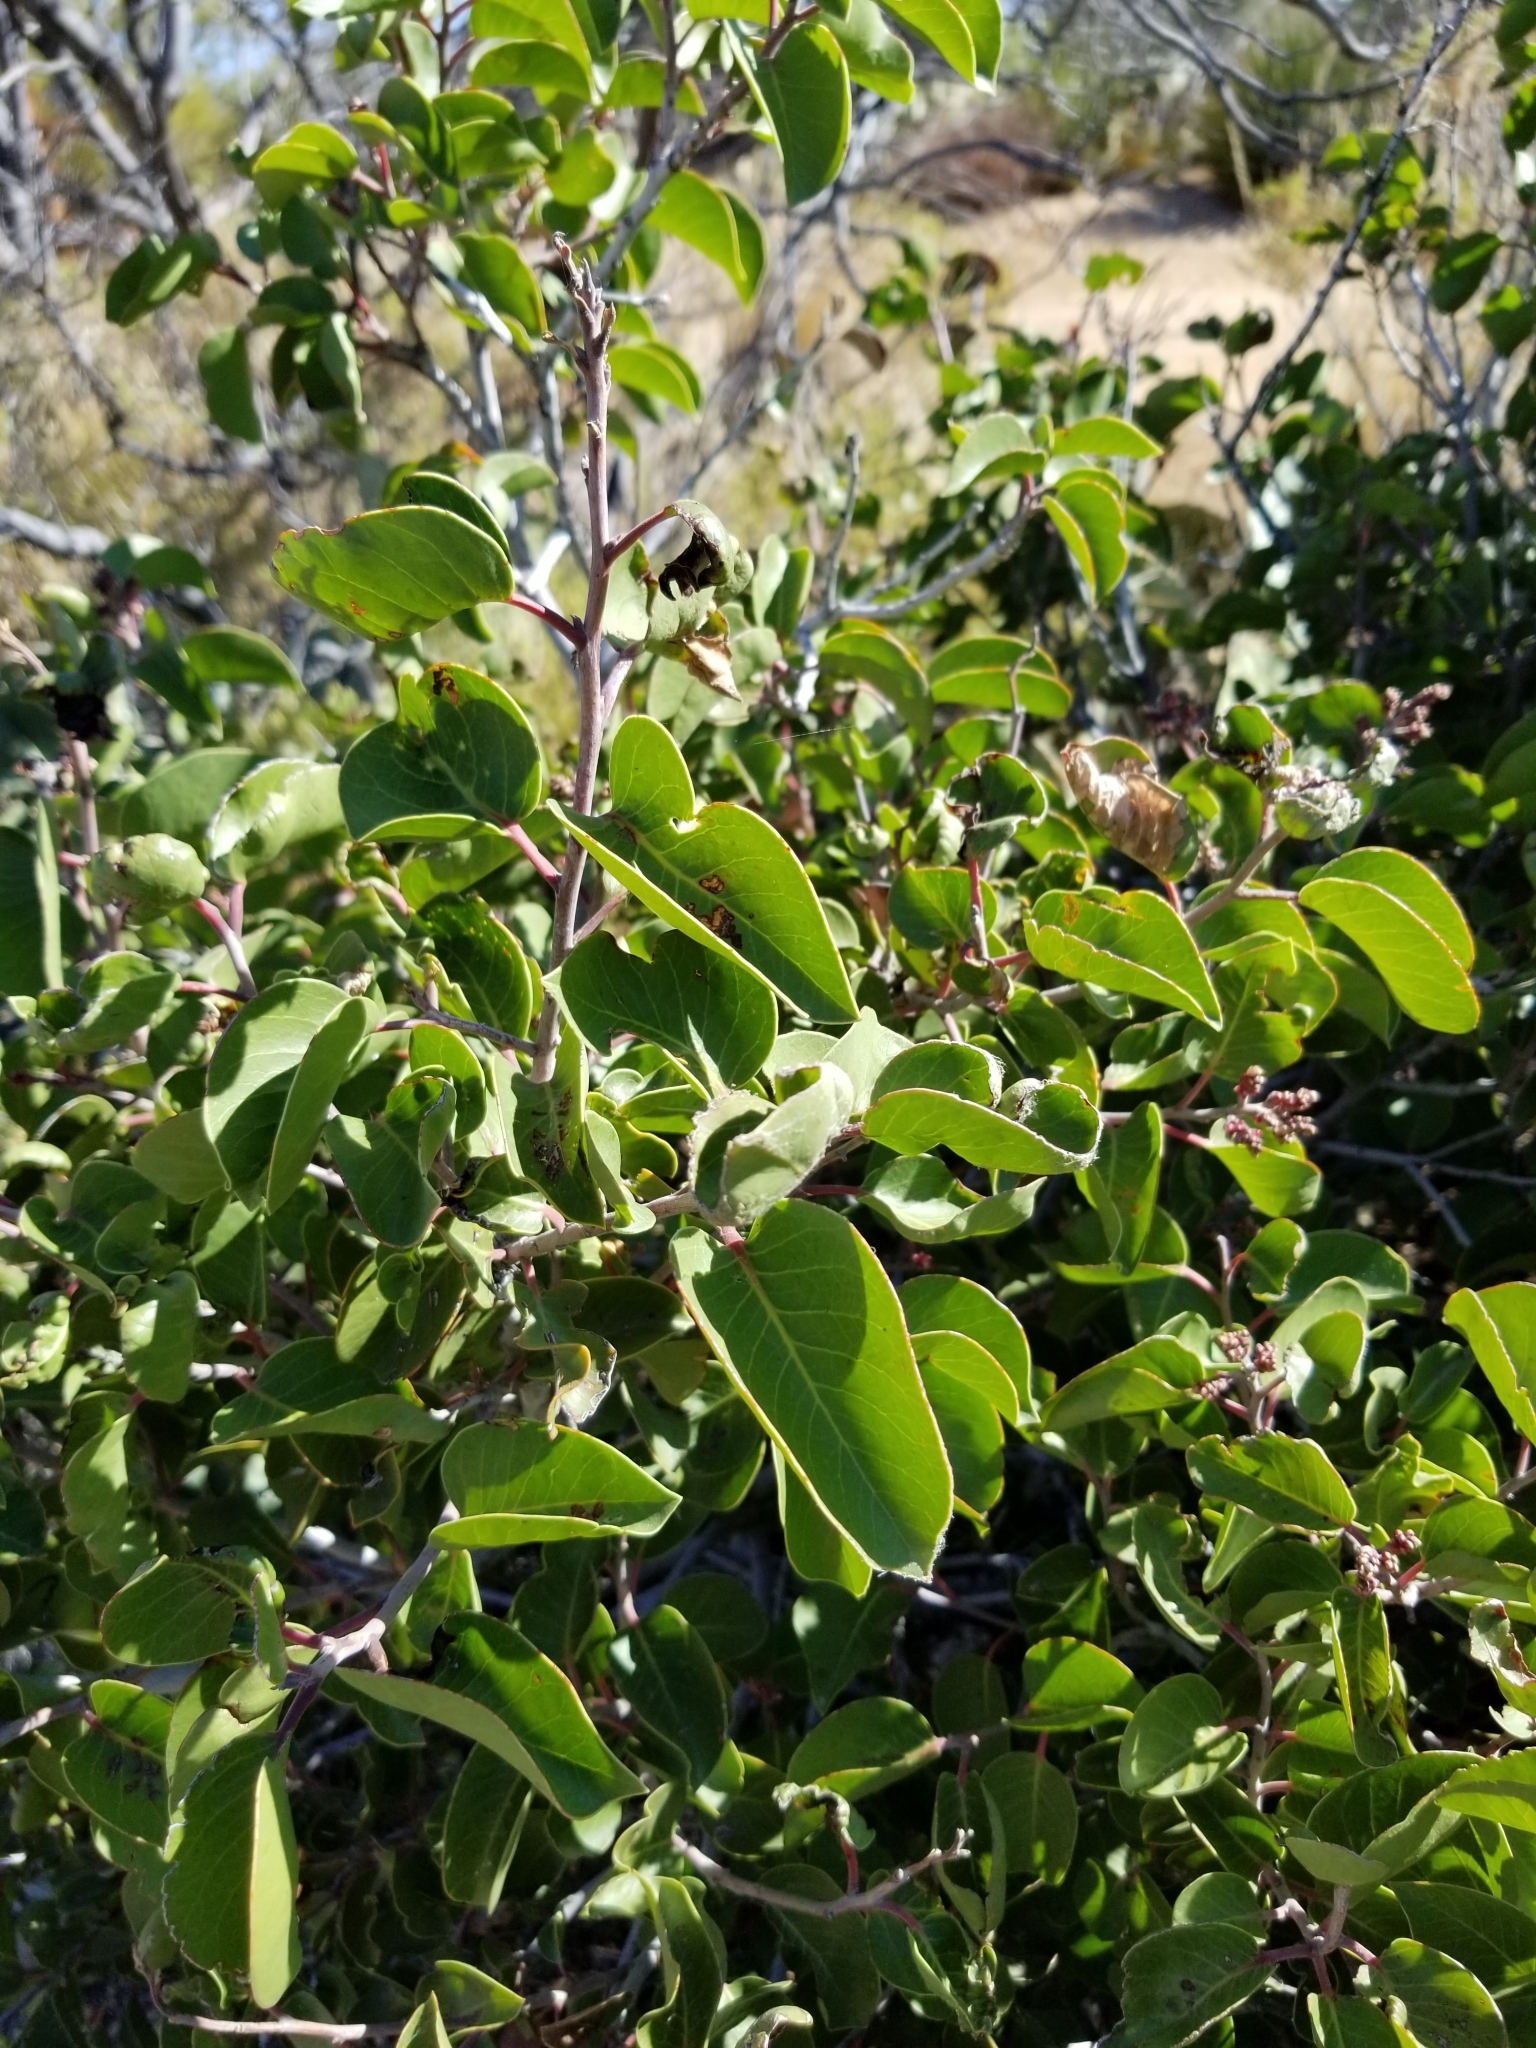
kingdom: Plantae
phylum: Tracheophyta
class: Magnoliopsida
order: Sapindales
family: Anacardiaceae
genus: Rhus
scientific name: Rhus ovata
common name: Sugar sumac
